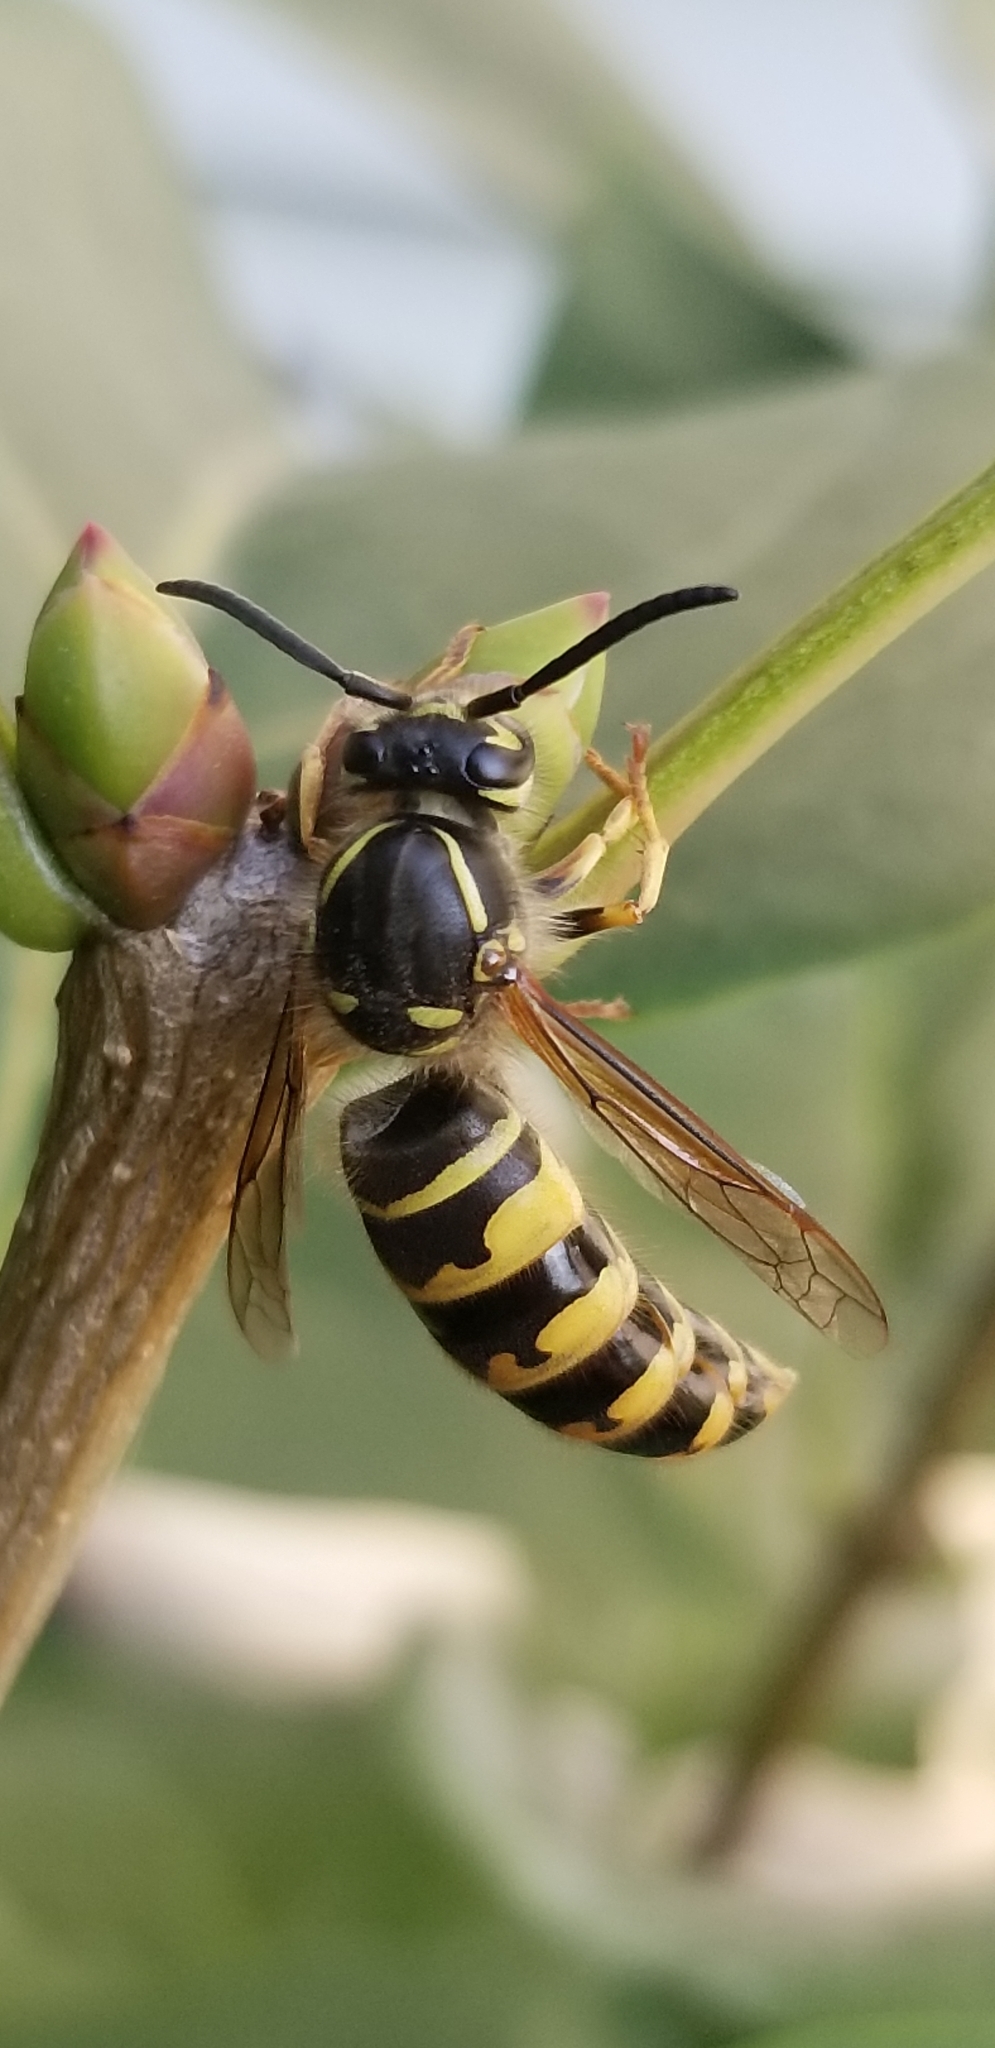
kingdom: Animalia
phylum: Arthropoda
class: Insecta
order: Hymenoptera
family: Vespidae
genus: Vespula
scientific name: Vespula alascensis
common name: Alaska yellowjacket
